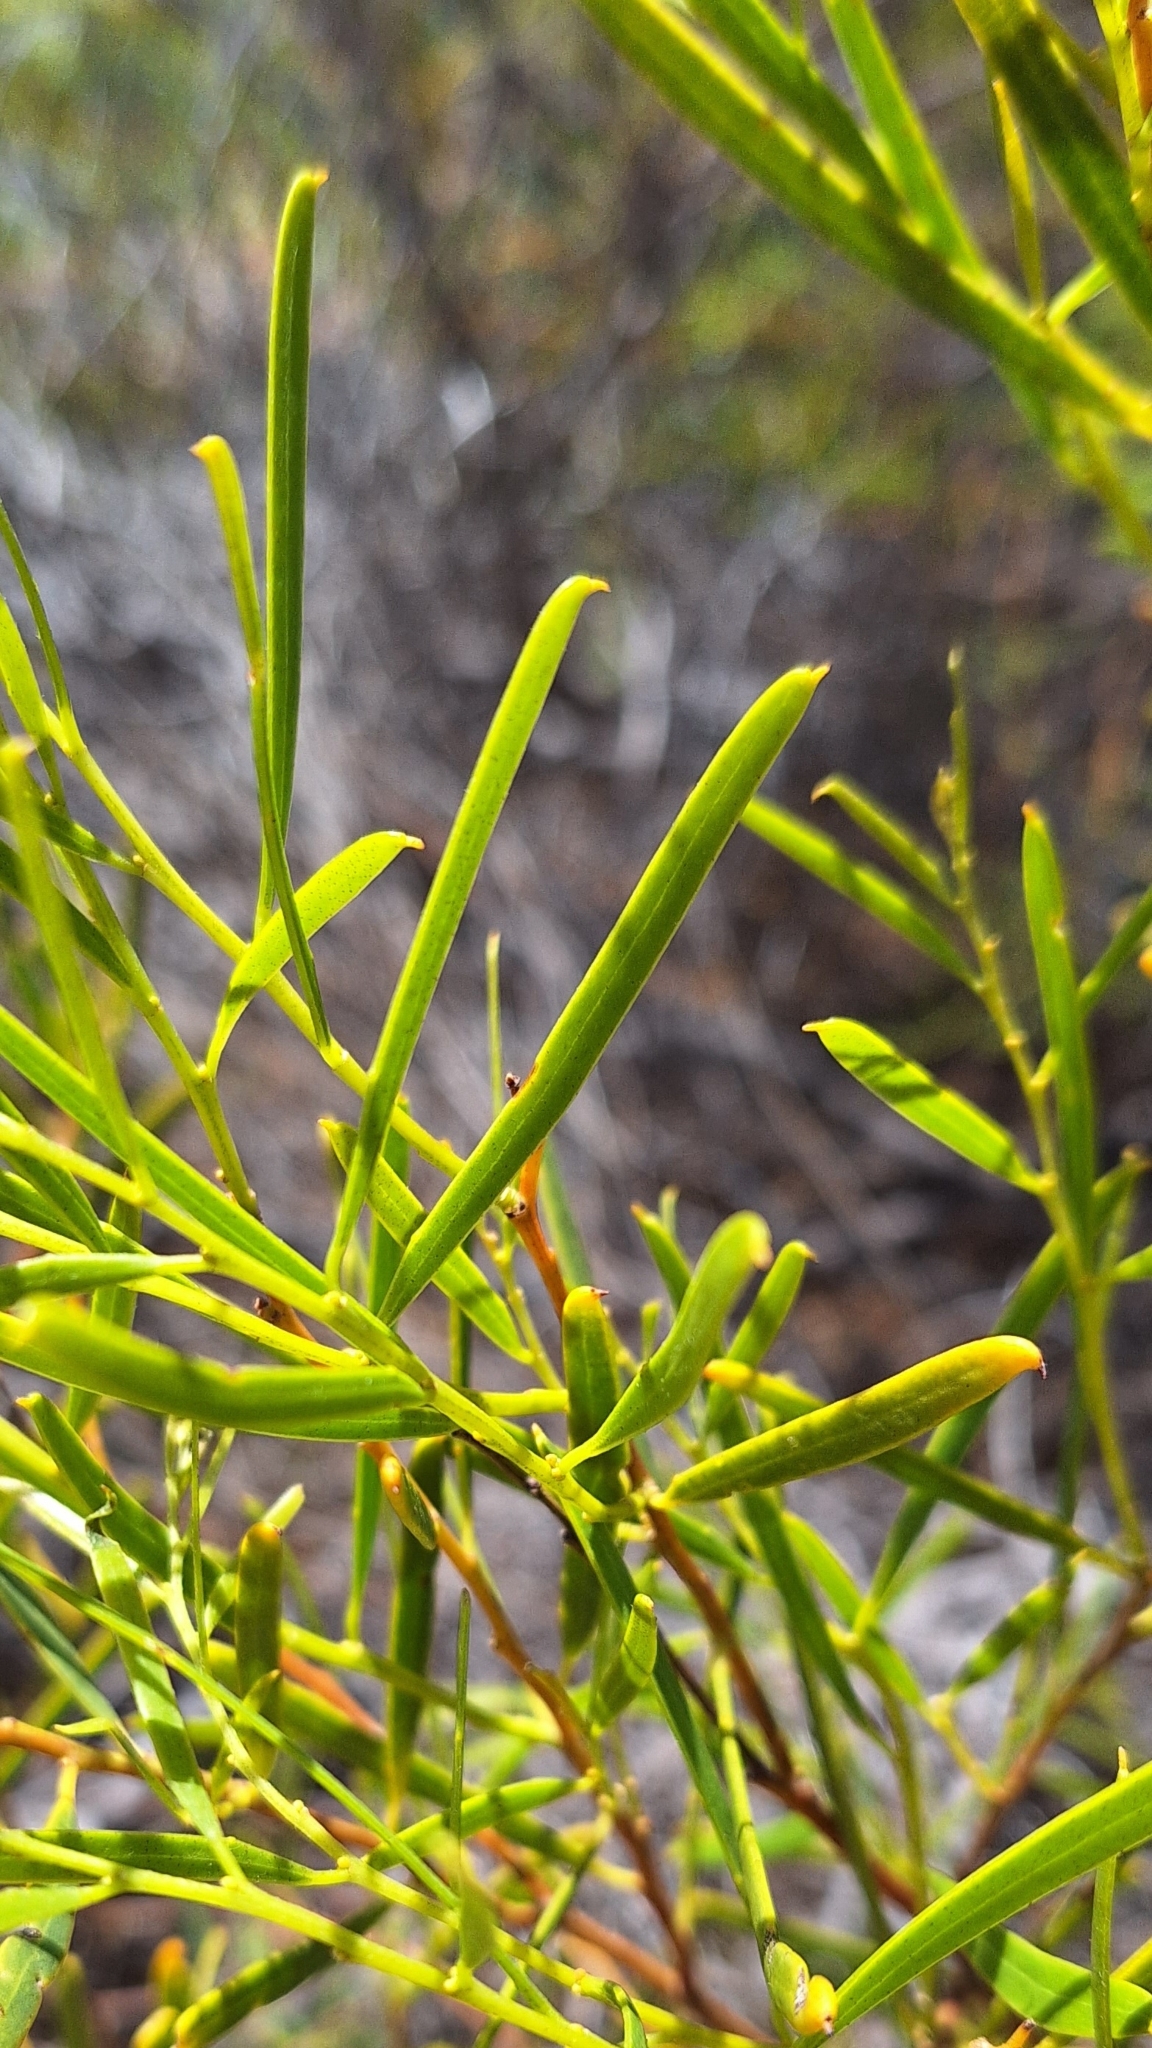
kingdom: Plantae
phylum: Tracheophyta
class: Magnoliopsida
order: Fabales
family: Fabaceae
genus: Acacia
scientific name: Acacia ligulata
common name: Dune wattle
